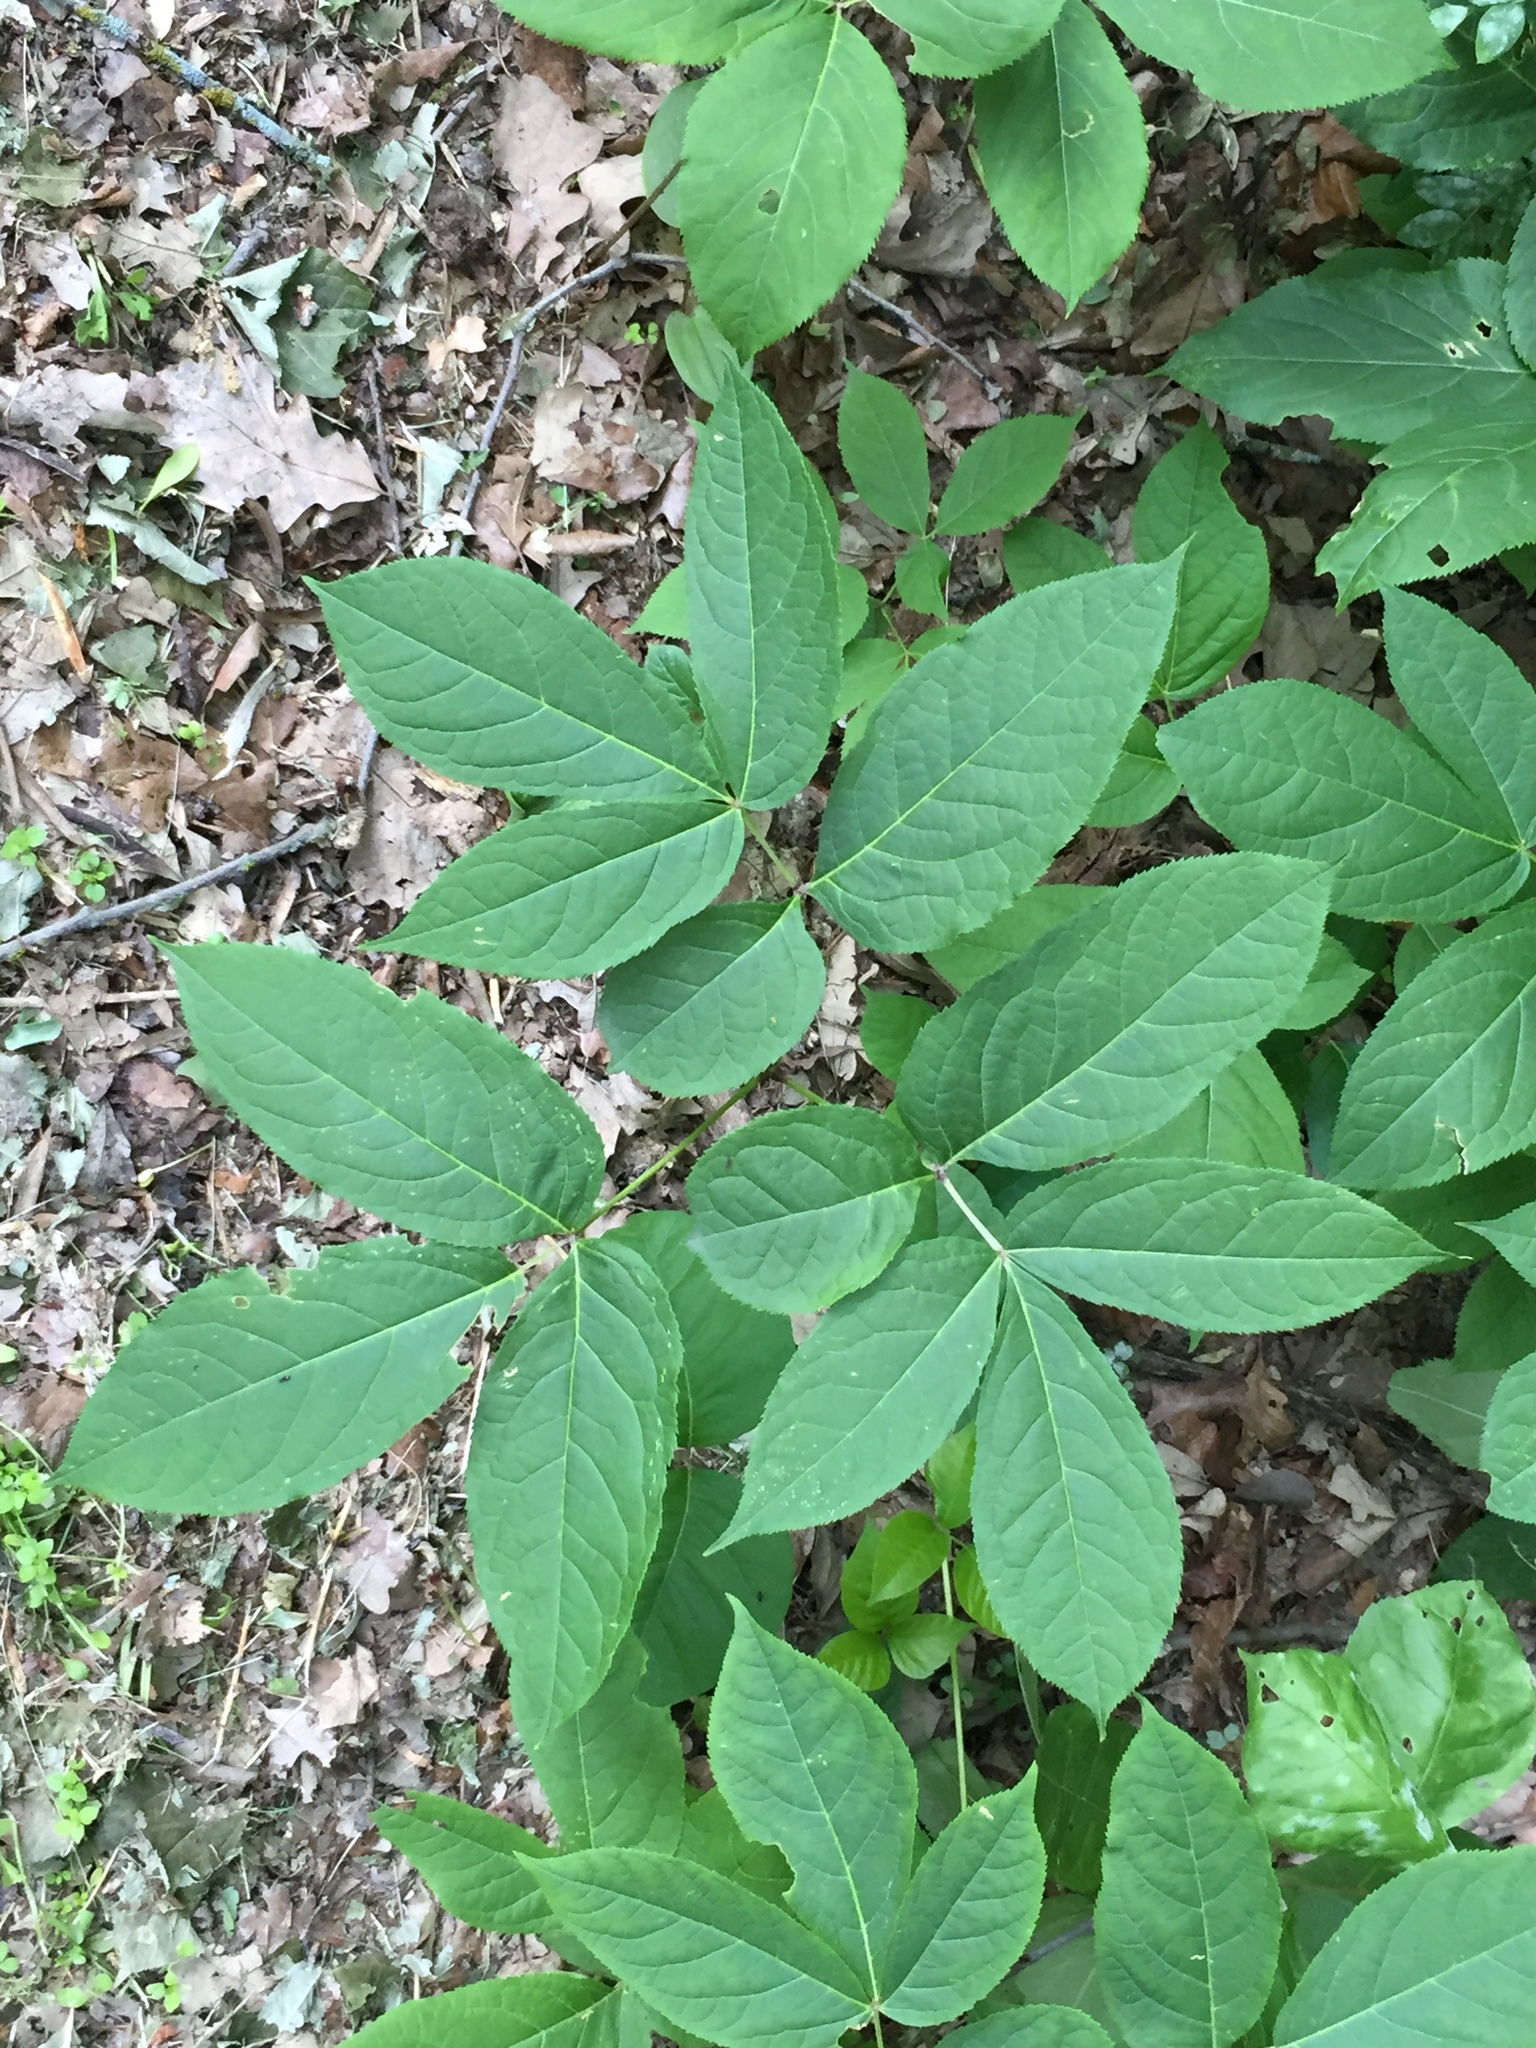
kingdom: Plantae
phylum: Tracheophyta
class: Magnoliopsida
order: Apiales
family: Araliaceae
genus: Aralia
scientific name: Aralia nudicaulis
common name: Wild sarsaparilla
